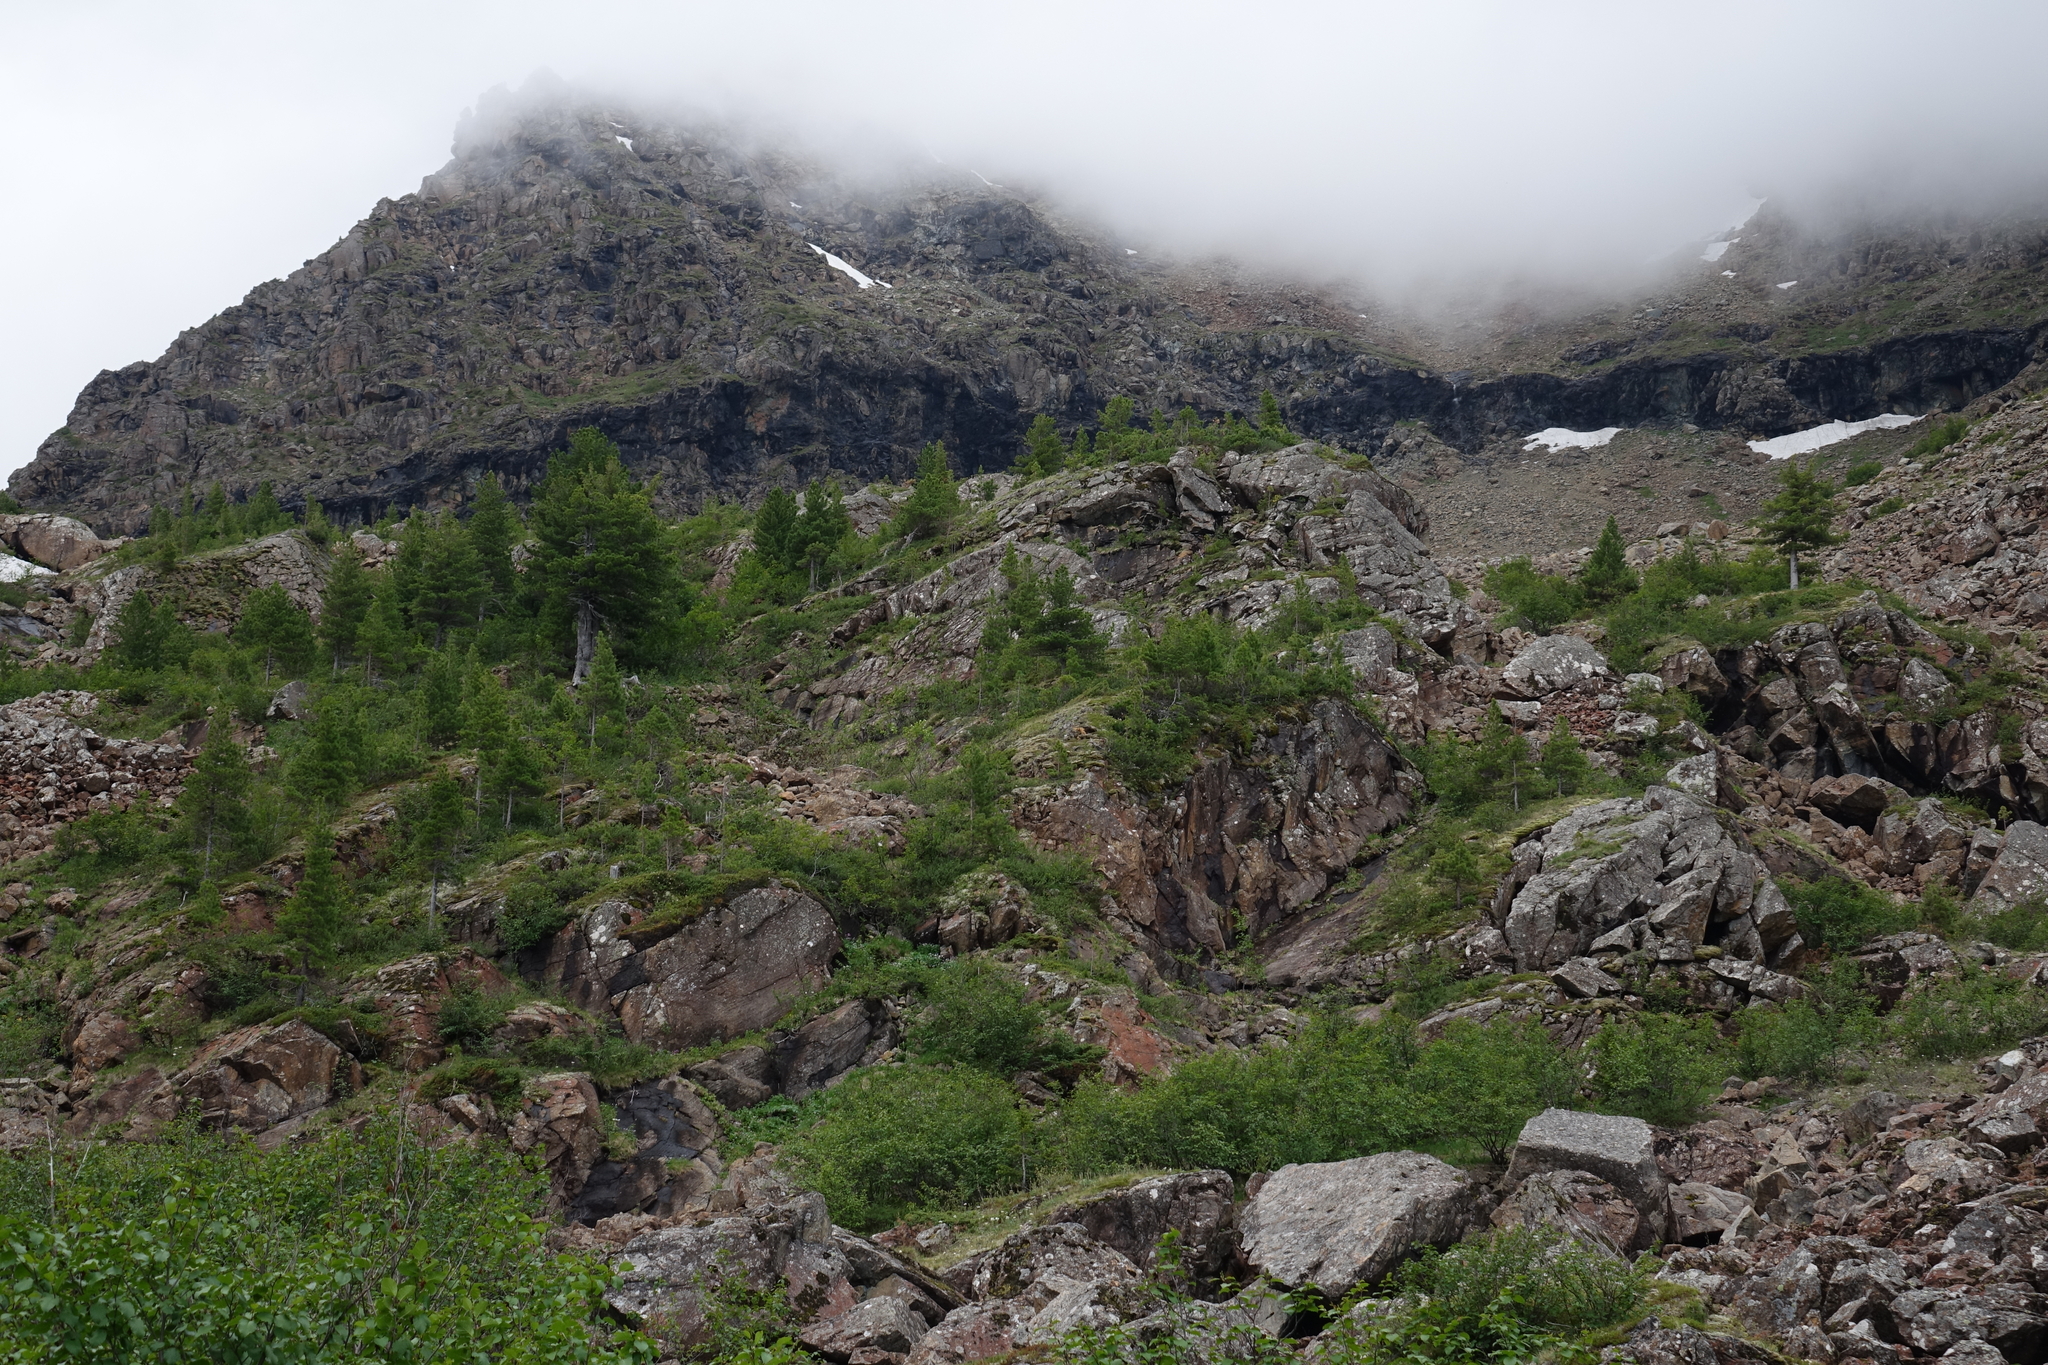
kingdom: Plantae
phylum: Tracheophyta
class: Pinopsida
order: Pinales
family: Pinaceae
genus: Pinus
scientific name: Pinus sibirica
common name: Siberian pine
